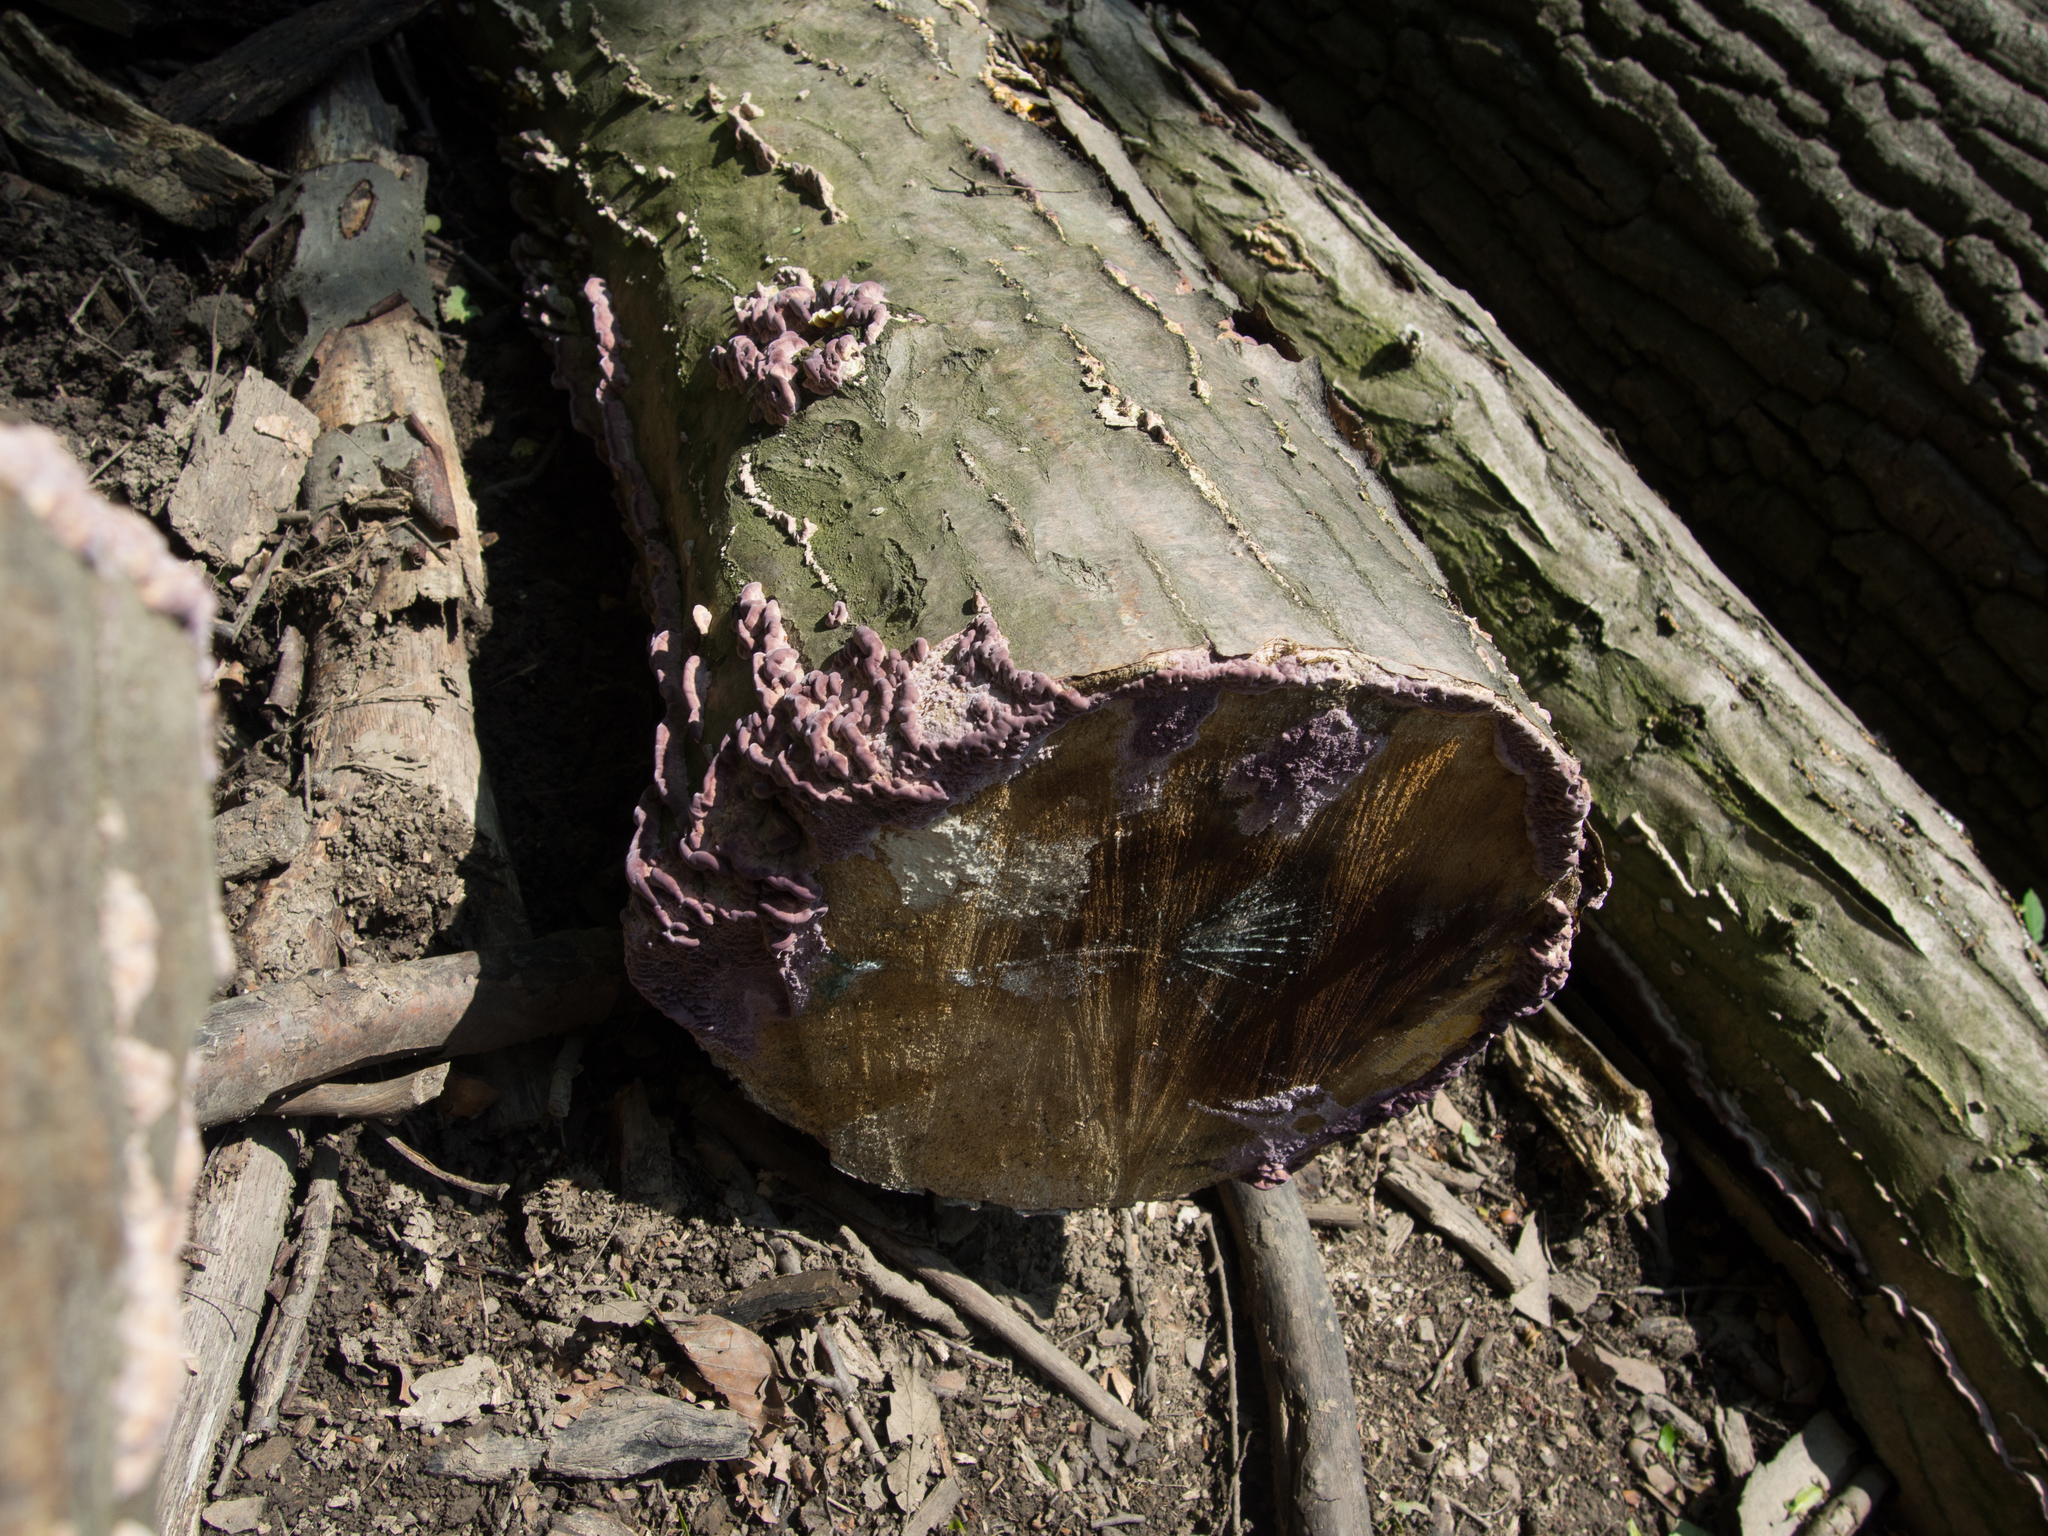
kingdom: Fungi
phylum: Basidiomycota
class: Agaricomycetes
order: Agaricales
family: Cyphellaceae
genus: Chondrostereum
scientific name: Chondrostereum purpureum
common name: Silver leaf disease
